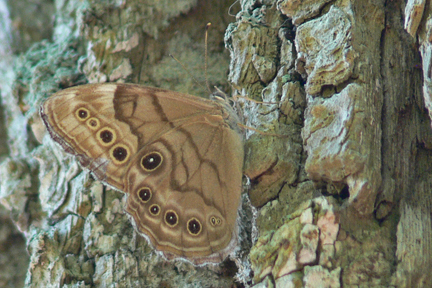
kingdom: Animalia
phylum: Arthropoda
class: Insecta
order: Lepidoptera
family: Nymphalidae
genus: Lethe
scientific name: Lethe anthedon
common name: Northern pearly-eye
